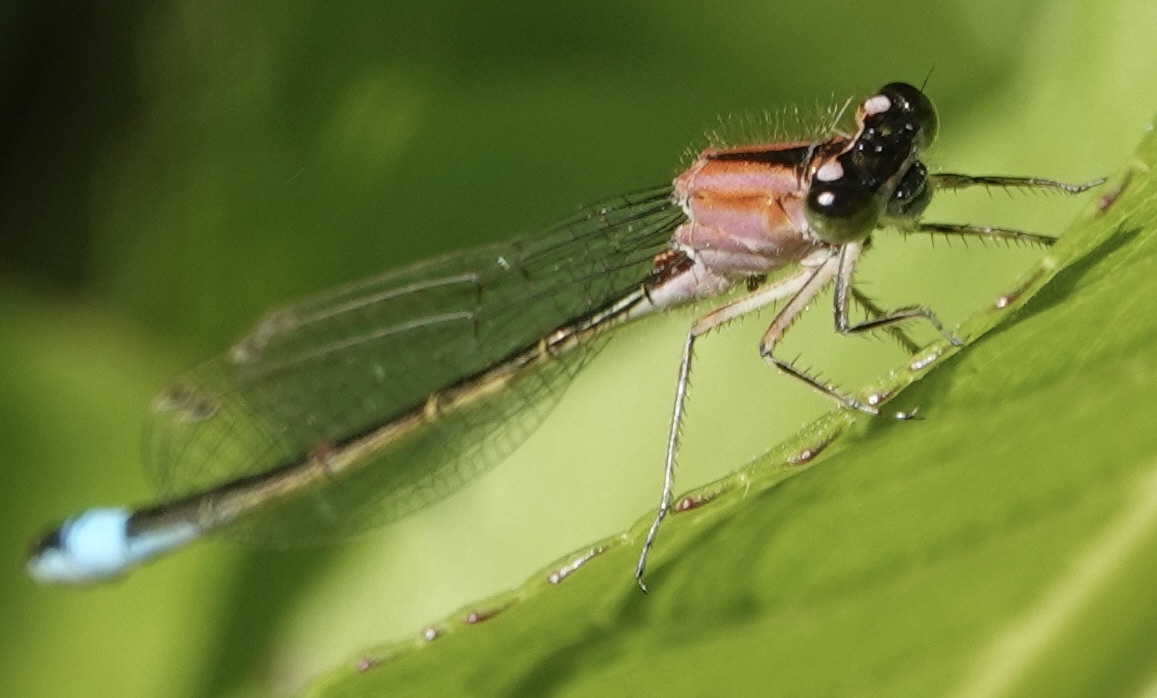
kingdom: Animalia
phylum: Arthropoda
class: Insecta
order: Odonata
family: Coenagrionidae
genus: Ischnura
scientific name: Ischnura elegans
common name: Blue-tailed damselfly
